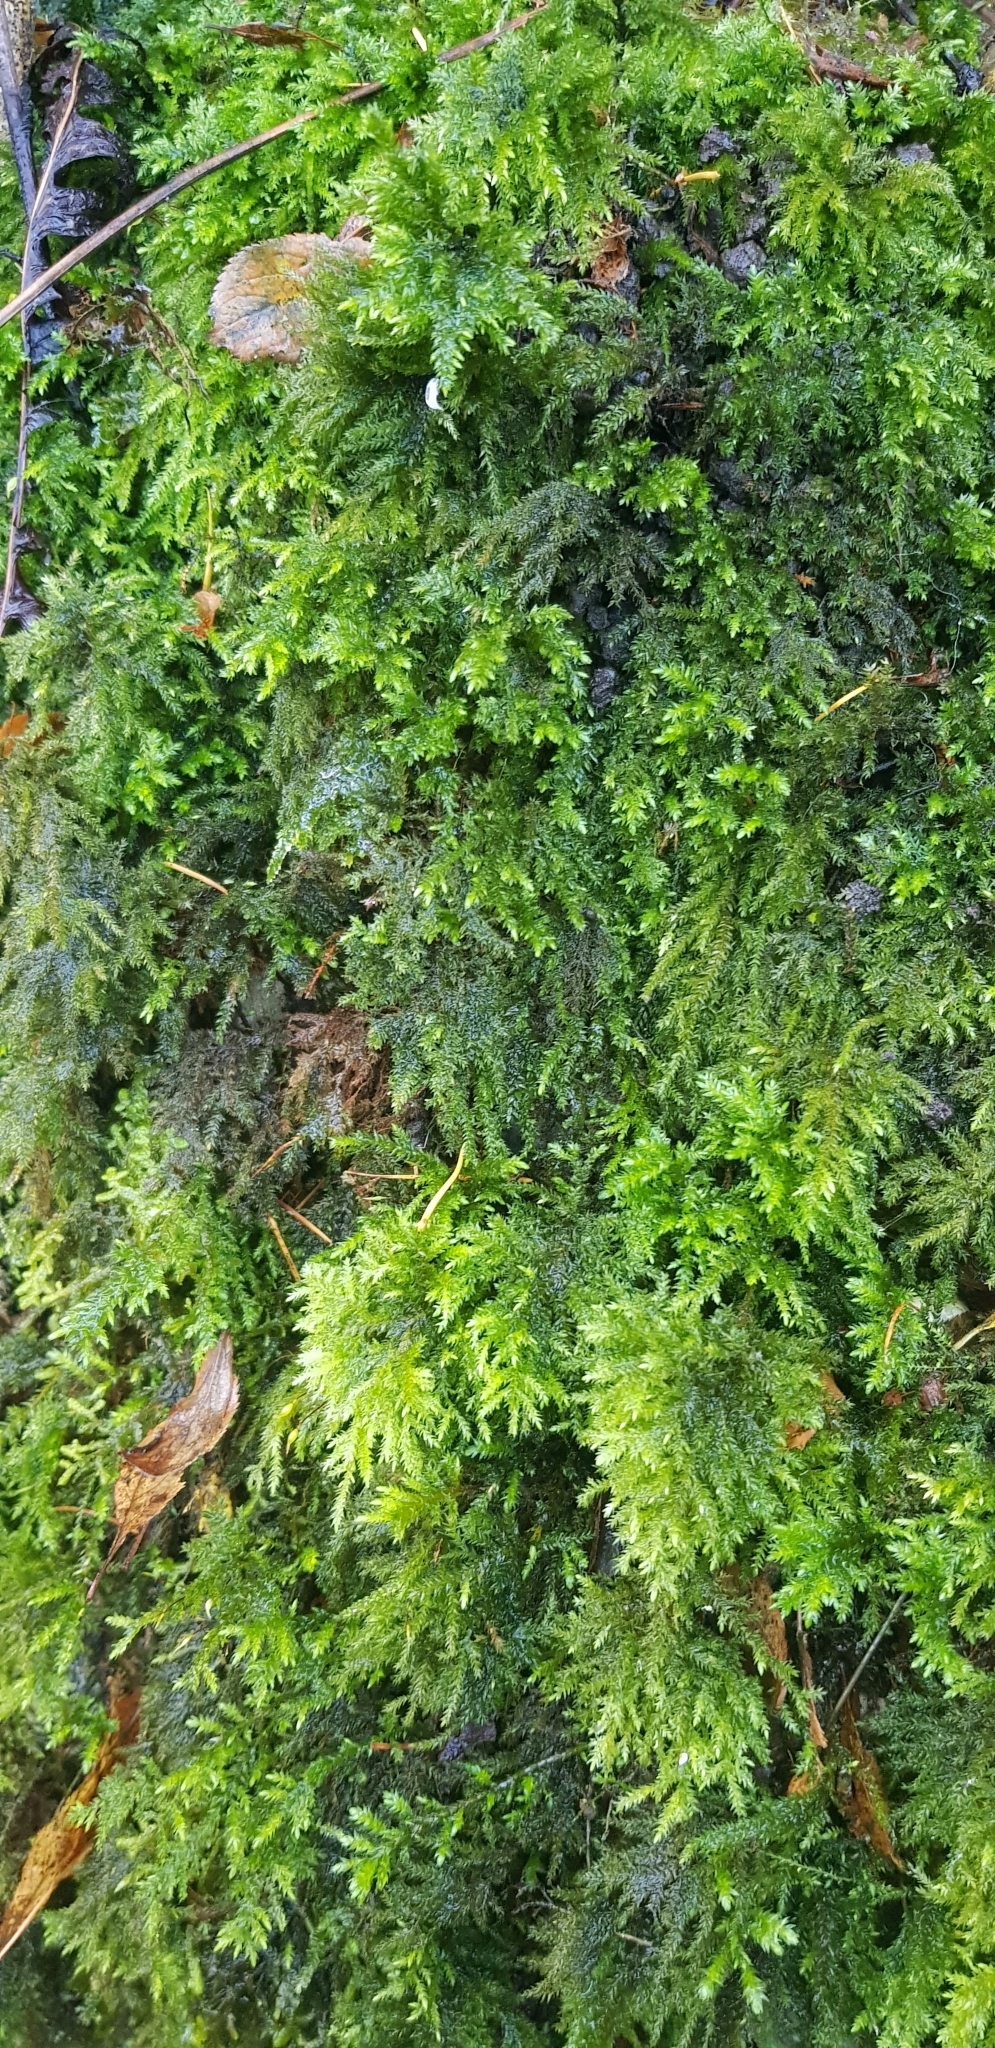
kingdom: Plantae
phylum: Bryophyta
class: Bryopsida
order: Hypnales
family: Neckeraceae
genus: Thamnobryum
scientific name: Thamnobryum alopecurum
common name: Fox-tail feather-moss
